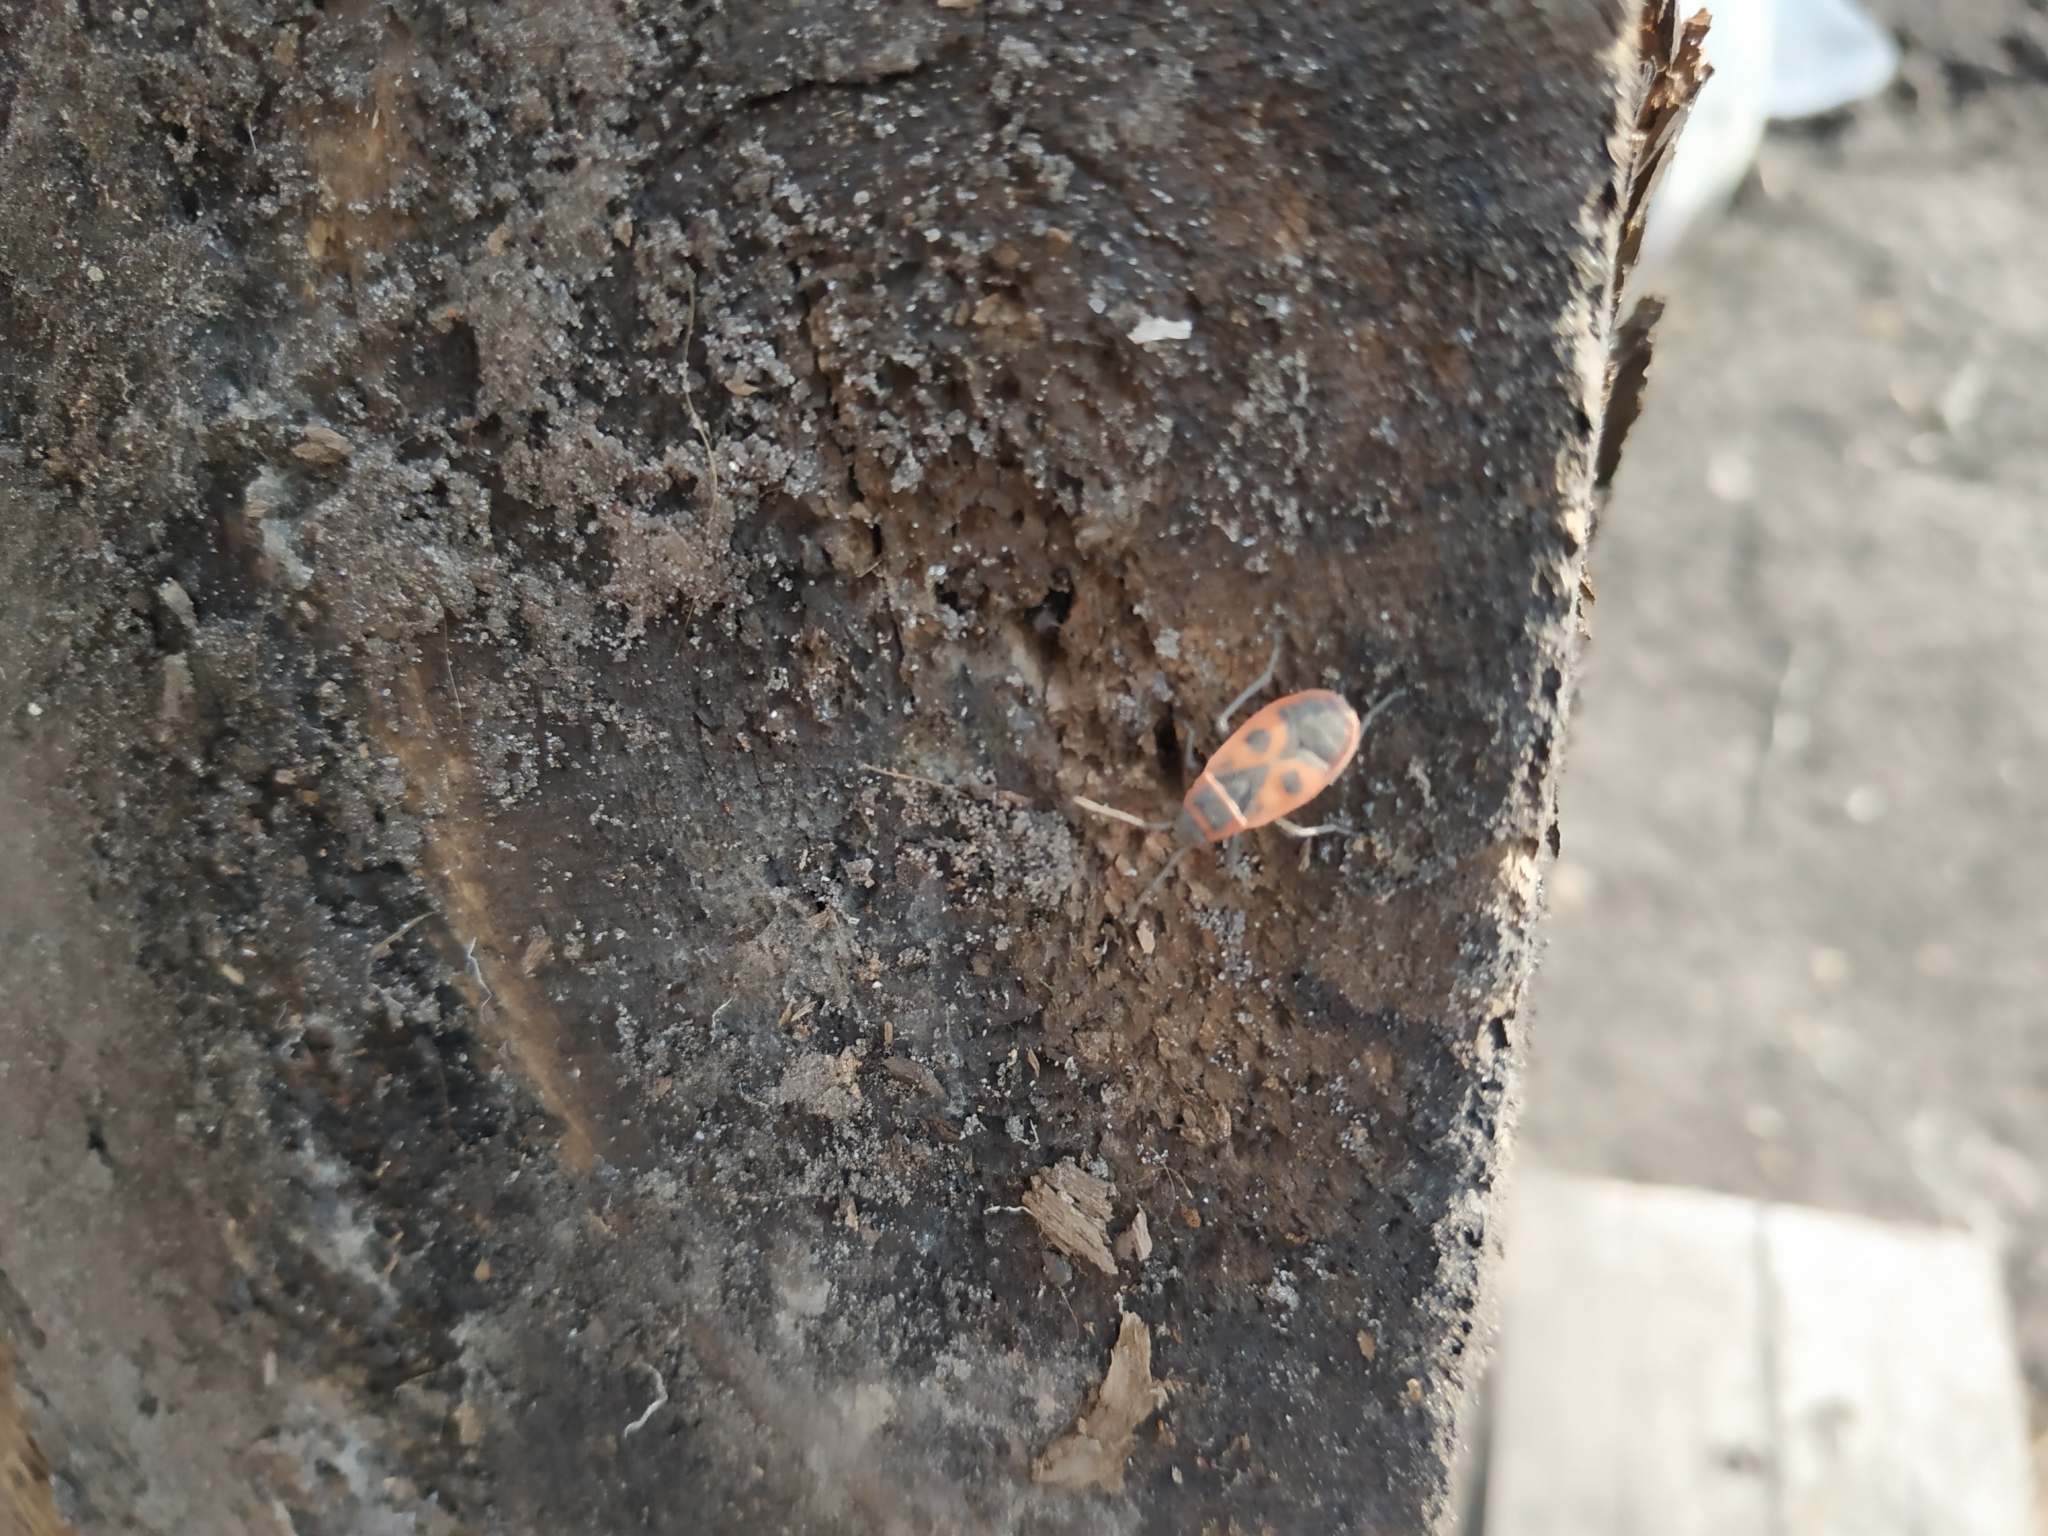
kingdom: Animalia
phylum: Arthropoda
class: Insecta
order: Hemiptera
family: Pyrrhocoridae
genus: Pyrrhocoris
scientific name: Pyrrhocoris apterus
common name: Firebug
